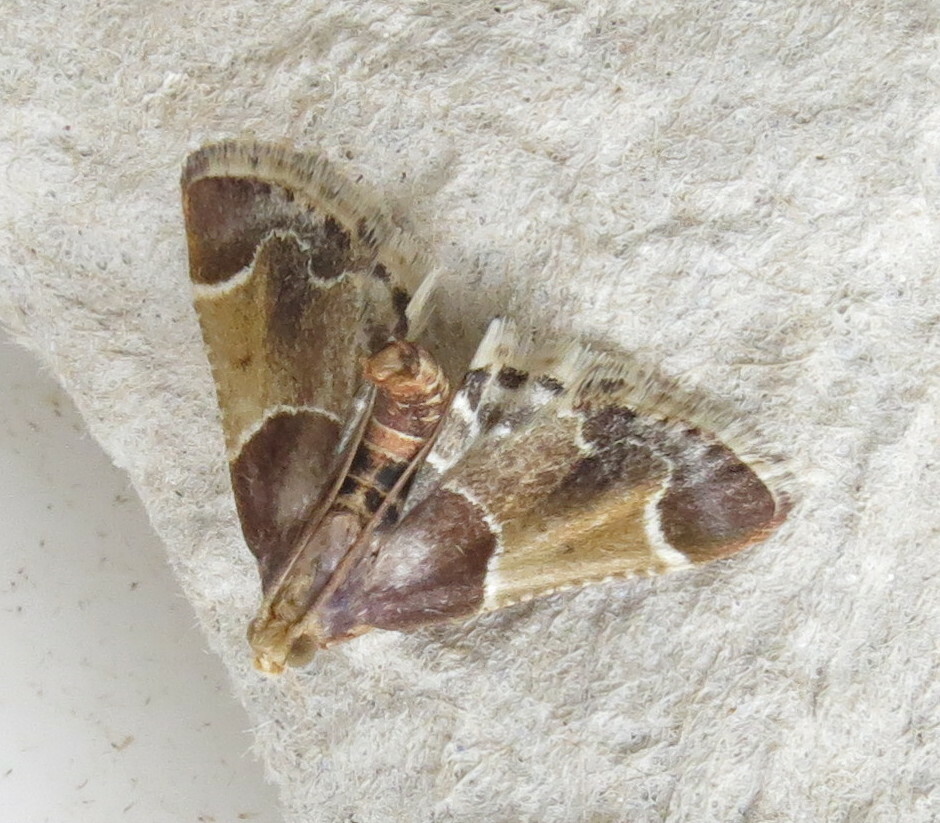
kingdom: Animalia
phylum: Arthropoda
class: Insecta
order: Lepidoptera
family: Pyralidae
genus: Pyralis
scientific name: Pyralis farinalis
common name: Meal moth
